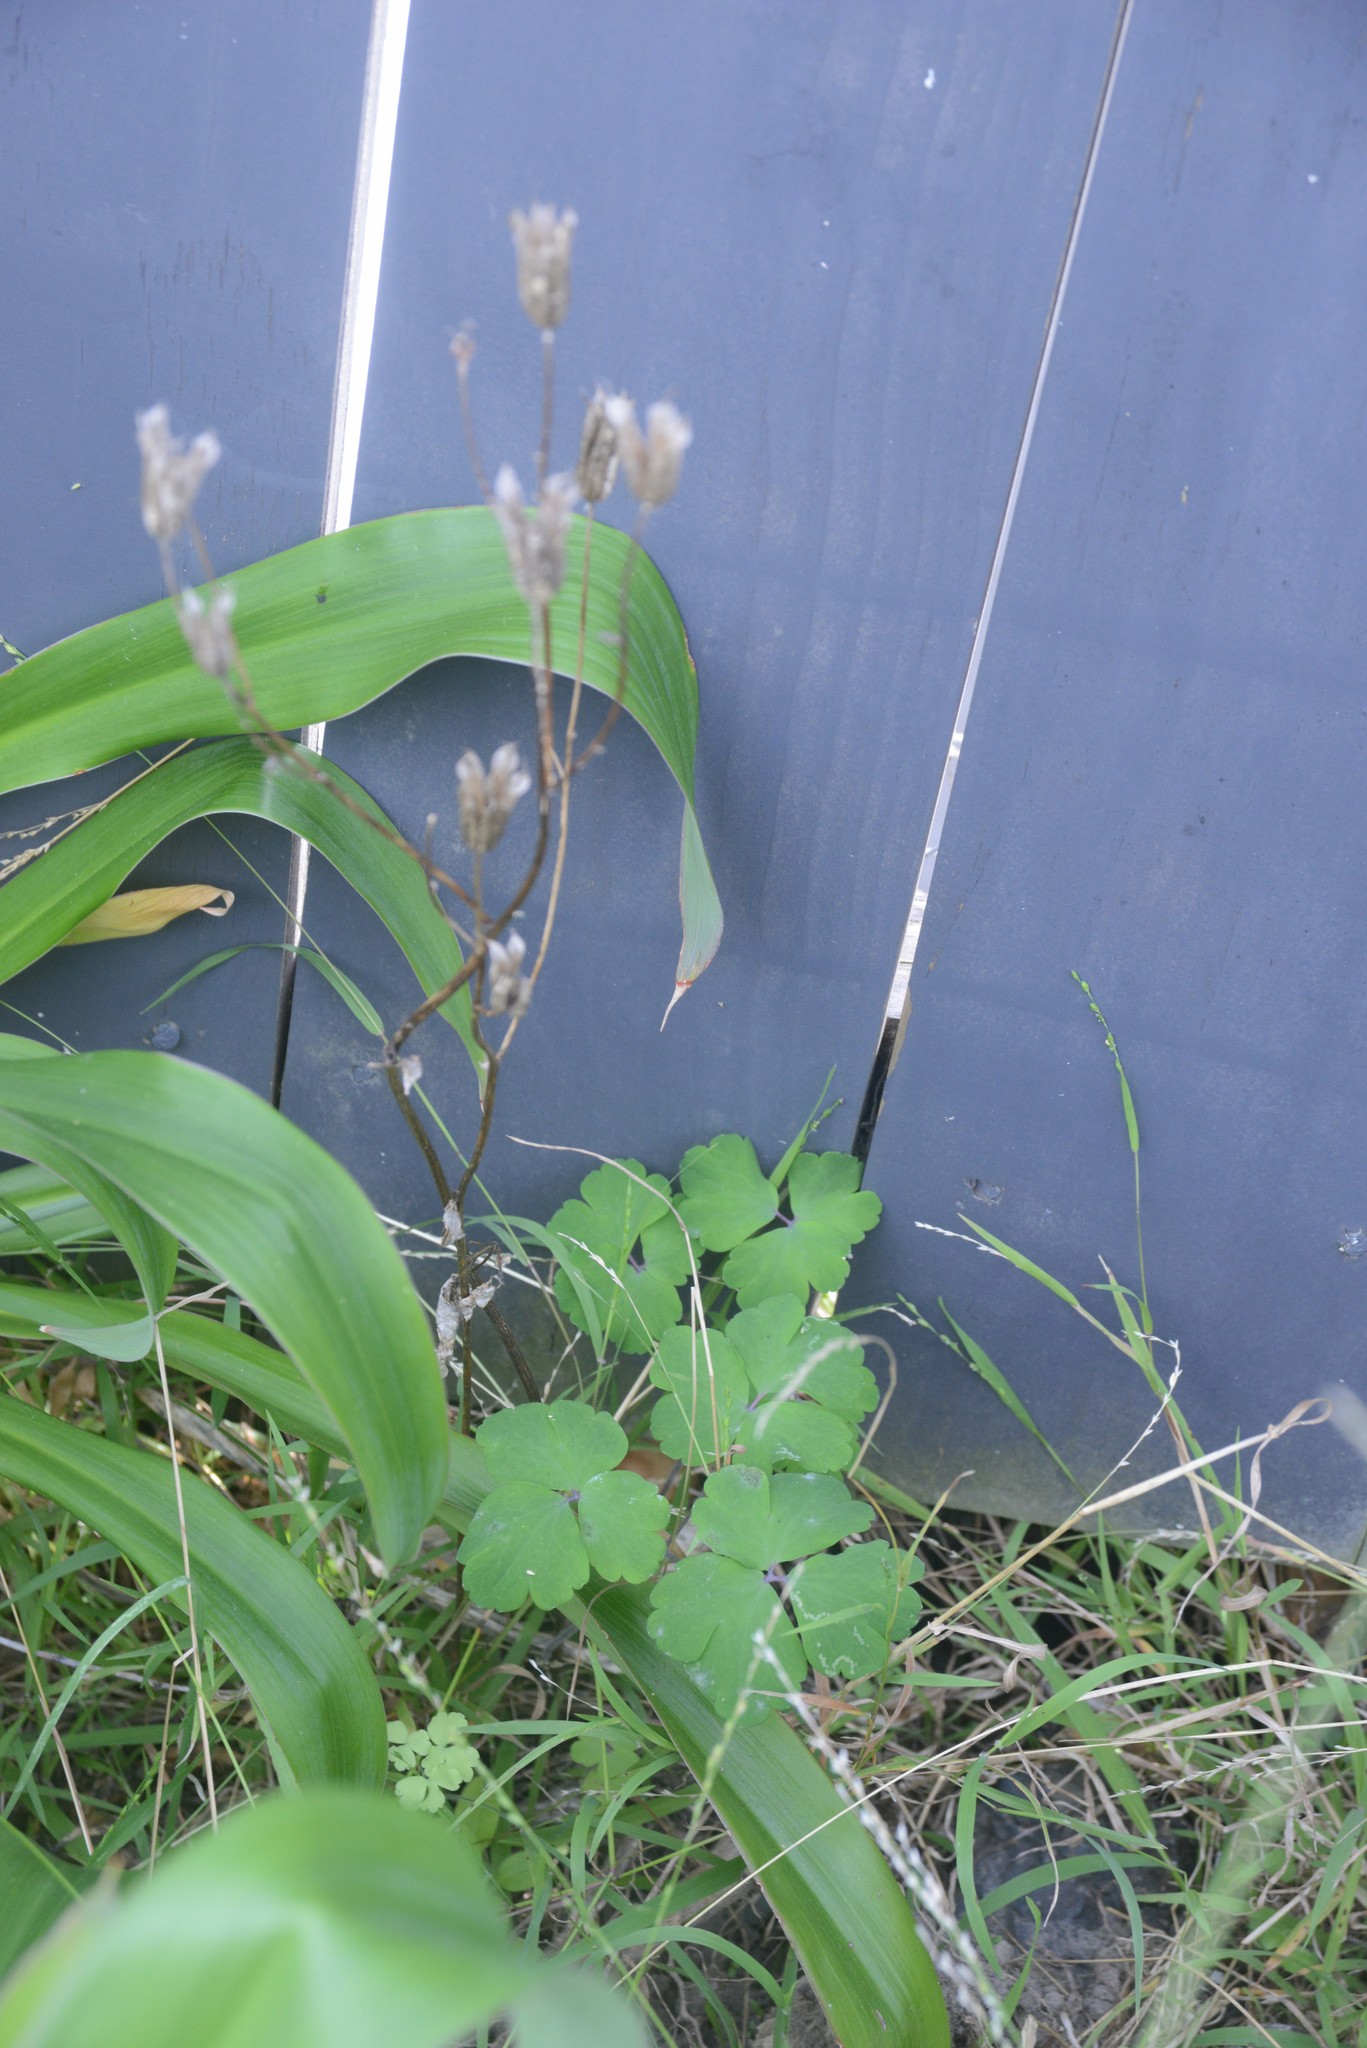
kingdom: Plantae
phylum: Tracheophyta
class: Magnoliopsida
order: Ranunculales
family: Ranunculaceae
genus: Aquilegia
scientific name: Aquilegia vulgaris
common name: Columbine
